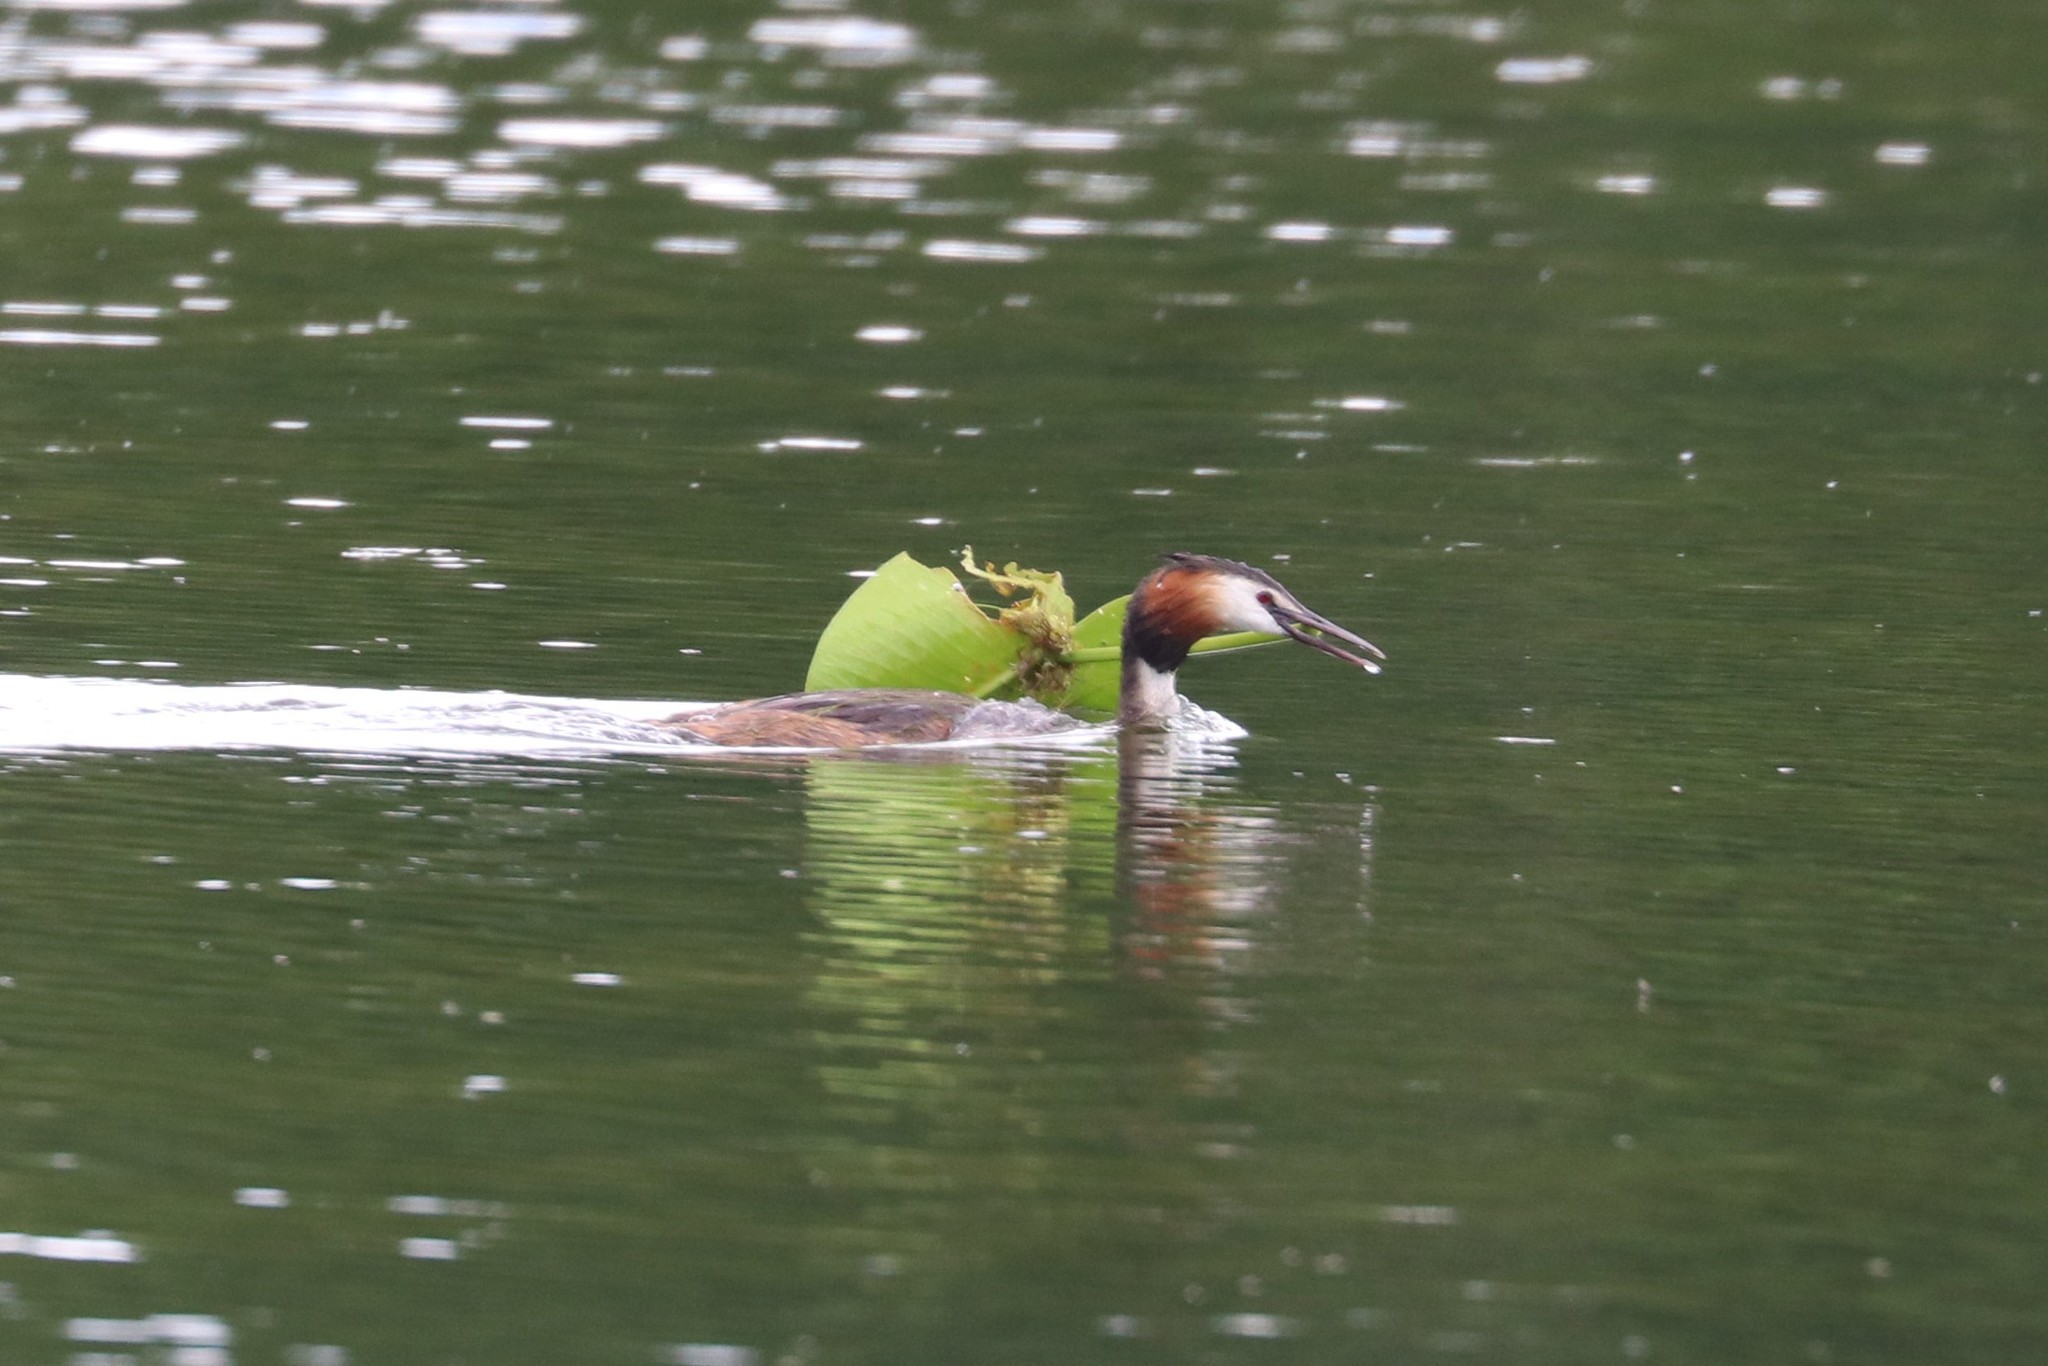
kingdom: Animalia
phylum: Chordata
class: Aves
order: Podicipediformes
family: Podicipedidae
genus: Podiceps
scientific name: Podiceps cristatus
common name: Great crested grebe
